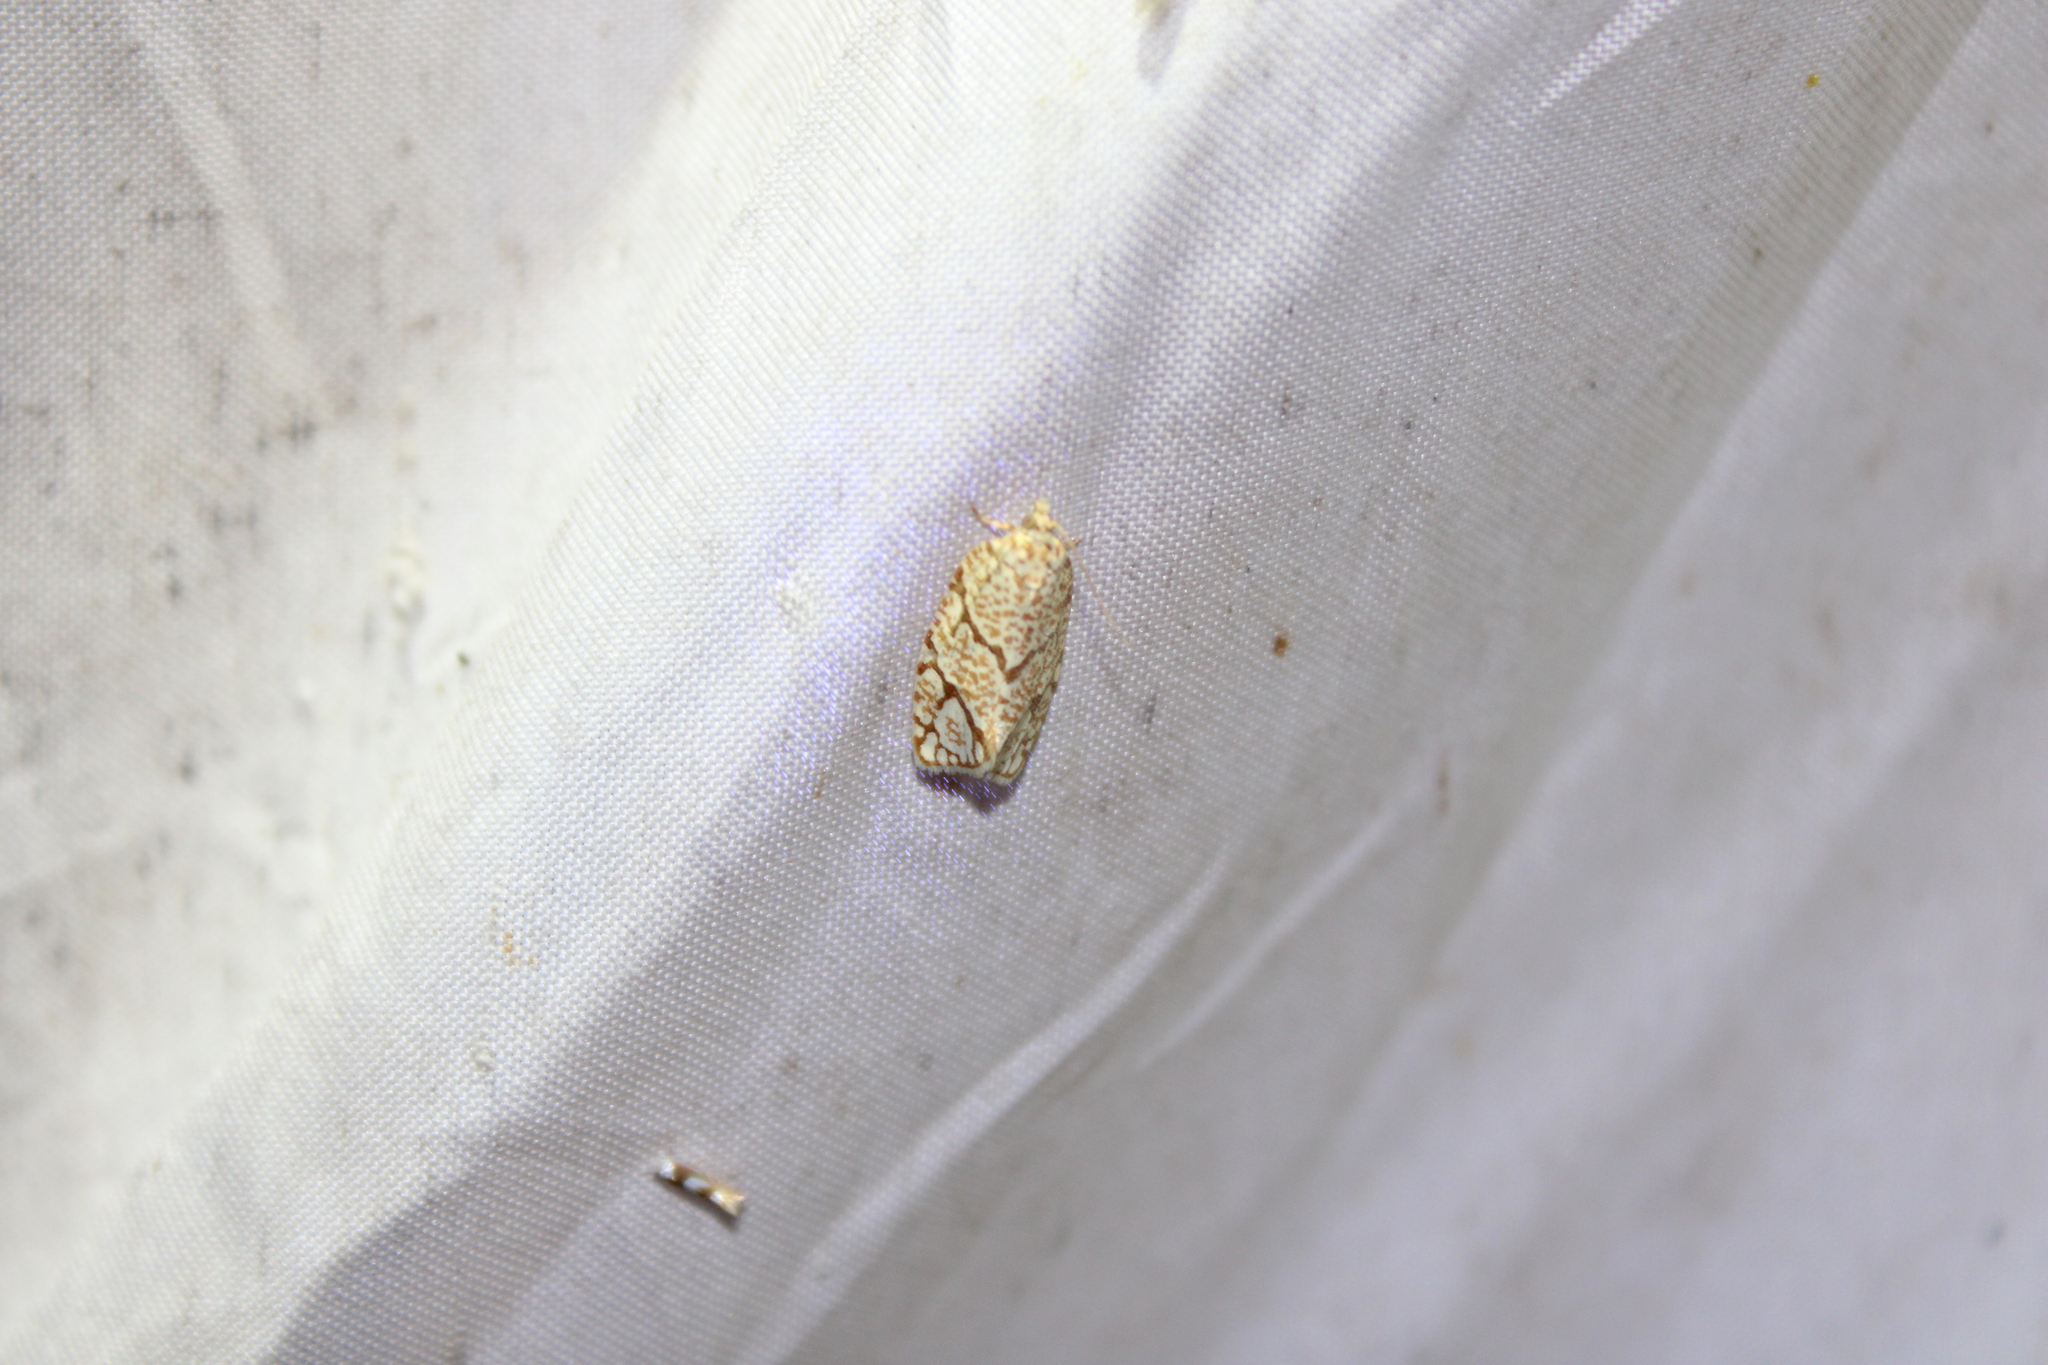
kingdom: Animalia
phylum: Arthropoda
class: Insecta
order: Lepidoptera
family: Tortricidae
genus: Argyrotaenia
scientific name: Argyrotaenia quercifoliana
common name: Yellow-winged oak leafroller moth
